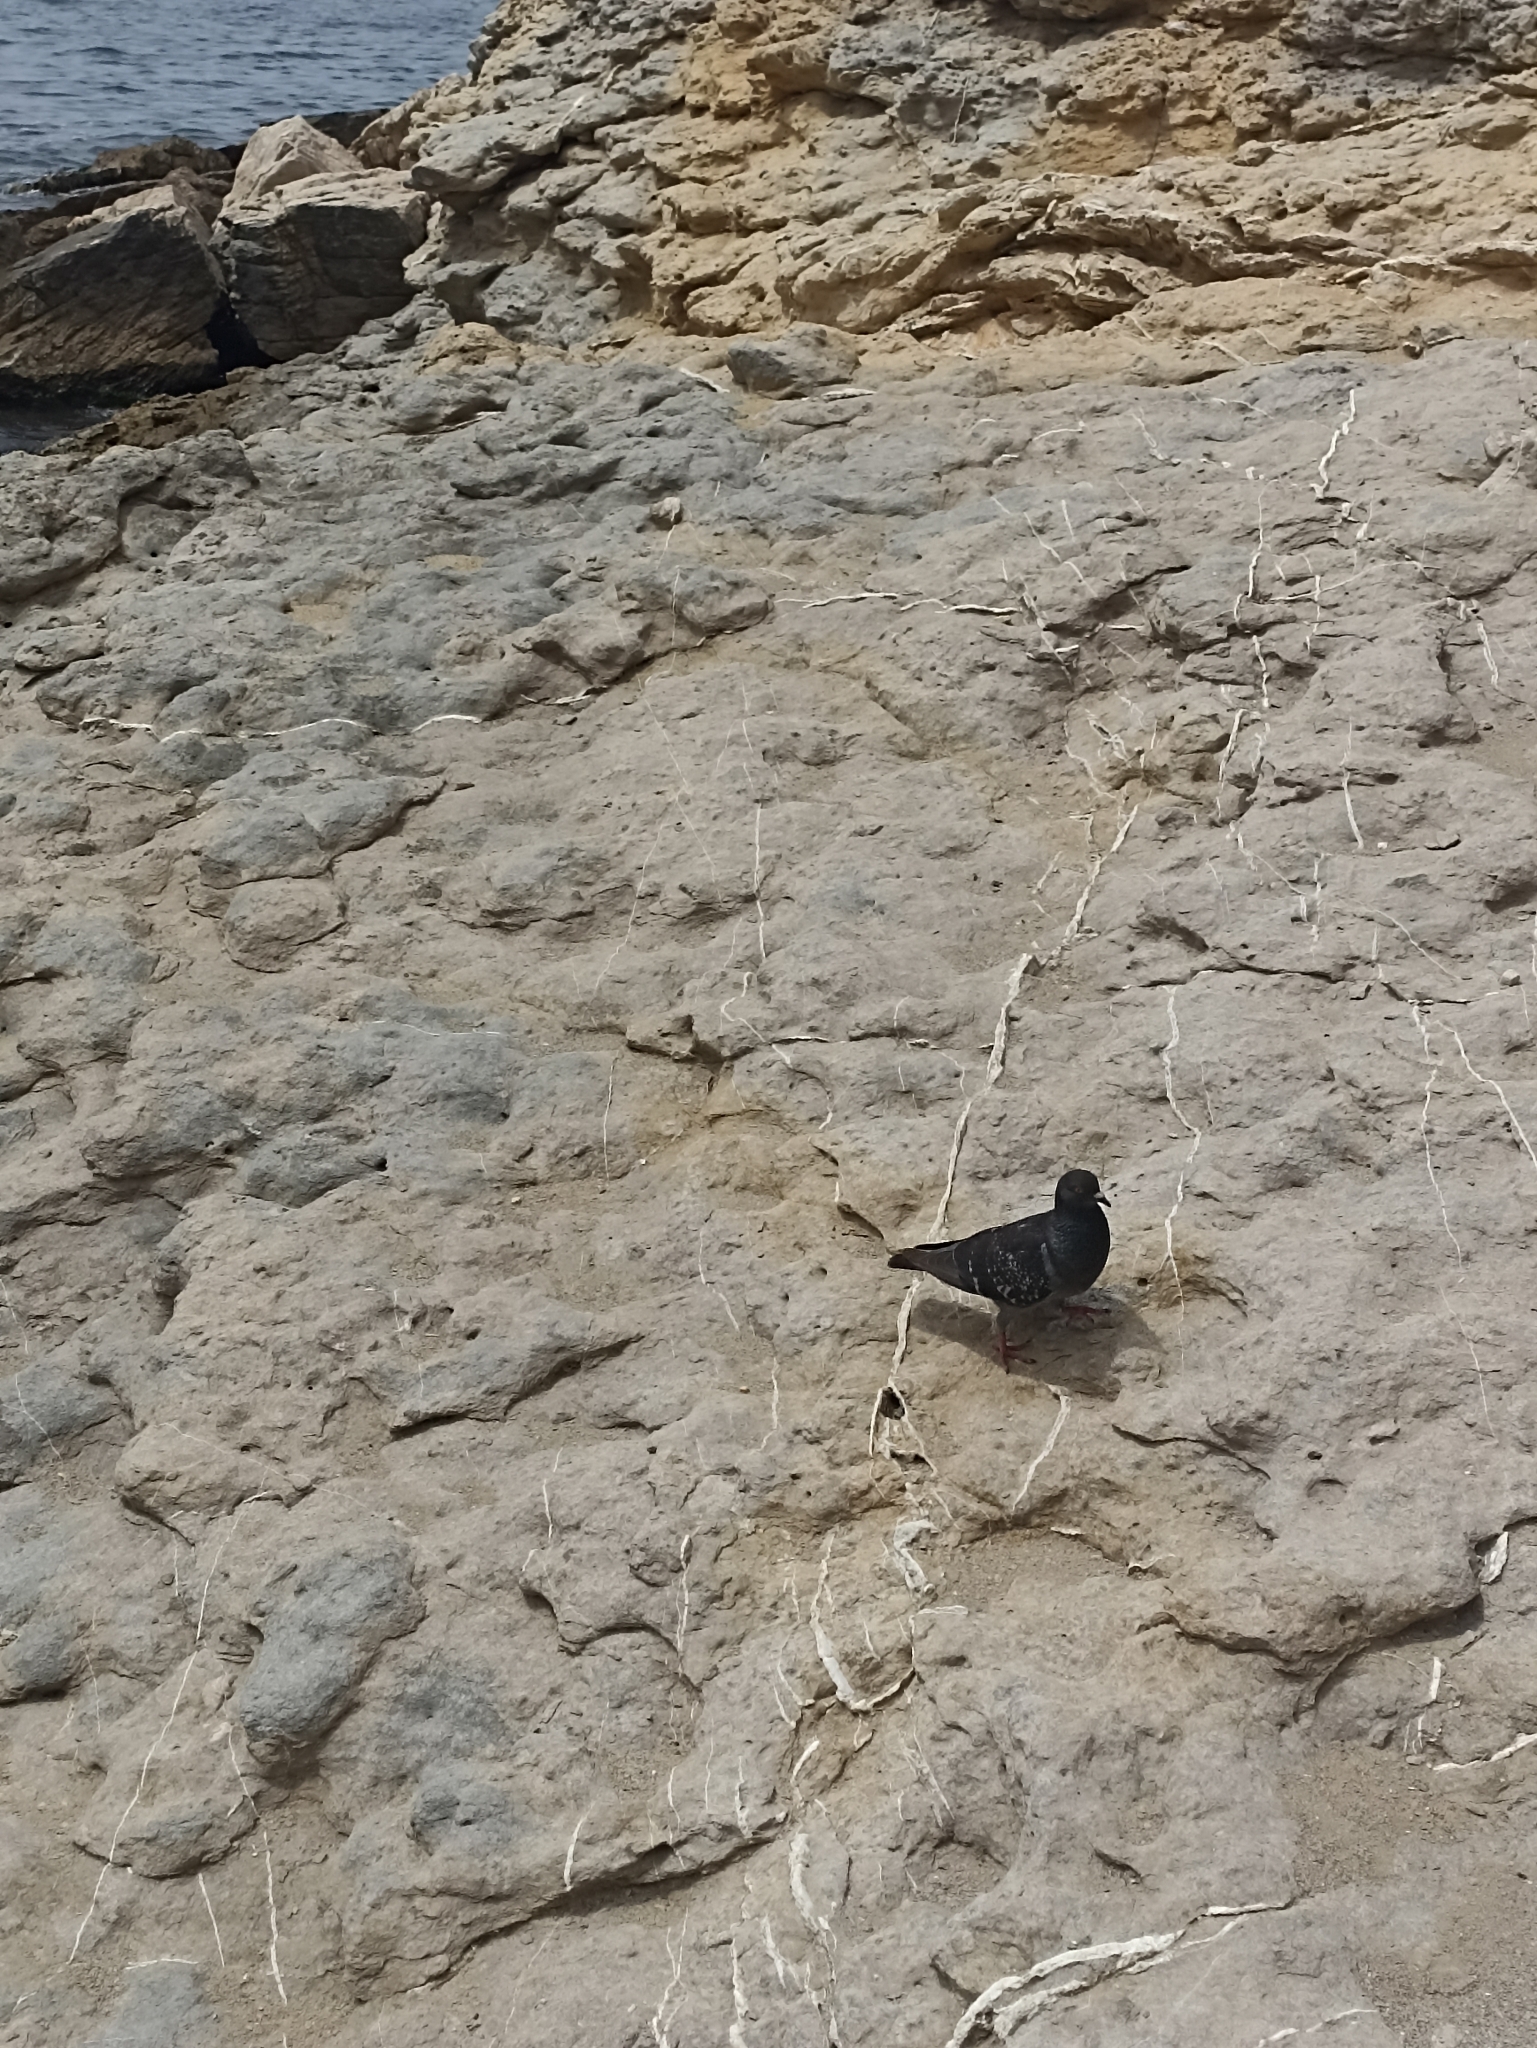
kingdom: Animalia
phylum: Chordata
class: Aves
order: Columbiformes
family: Columbidae
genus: Columba
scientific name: Columba livia
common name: Rock pigeon
